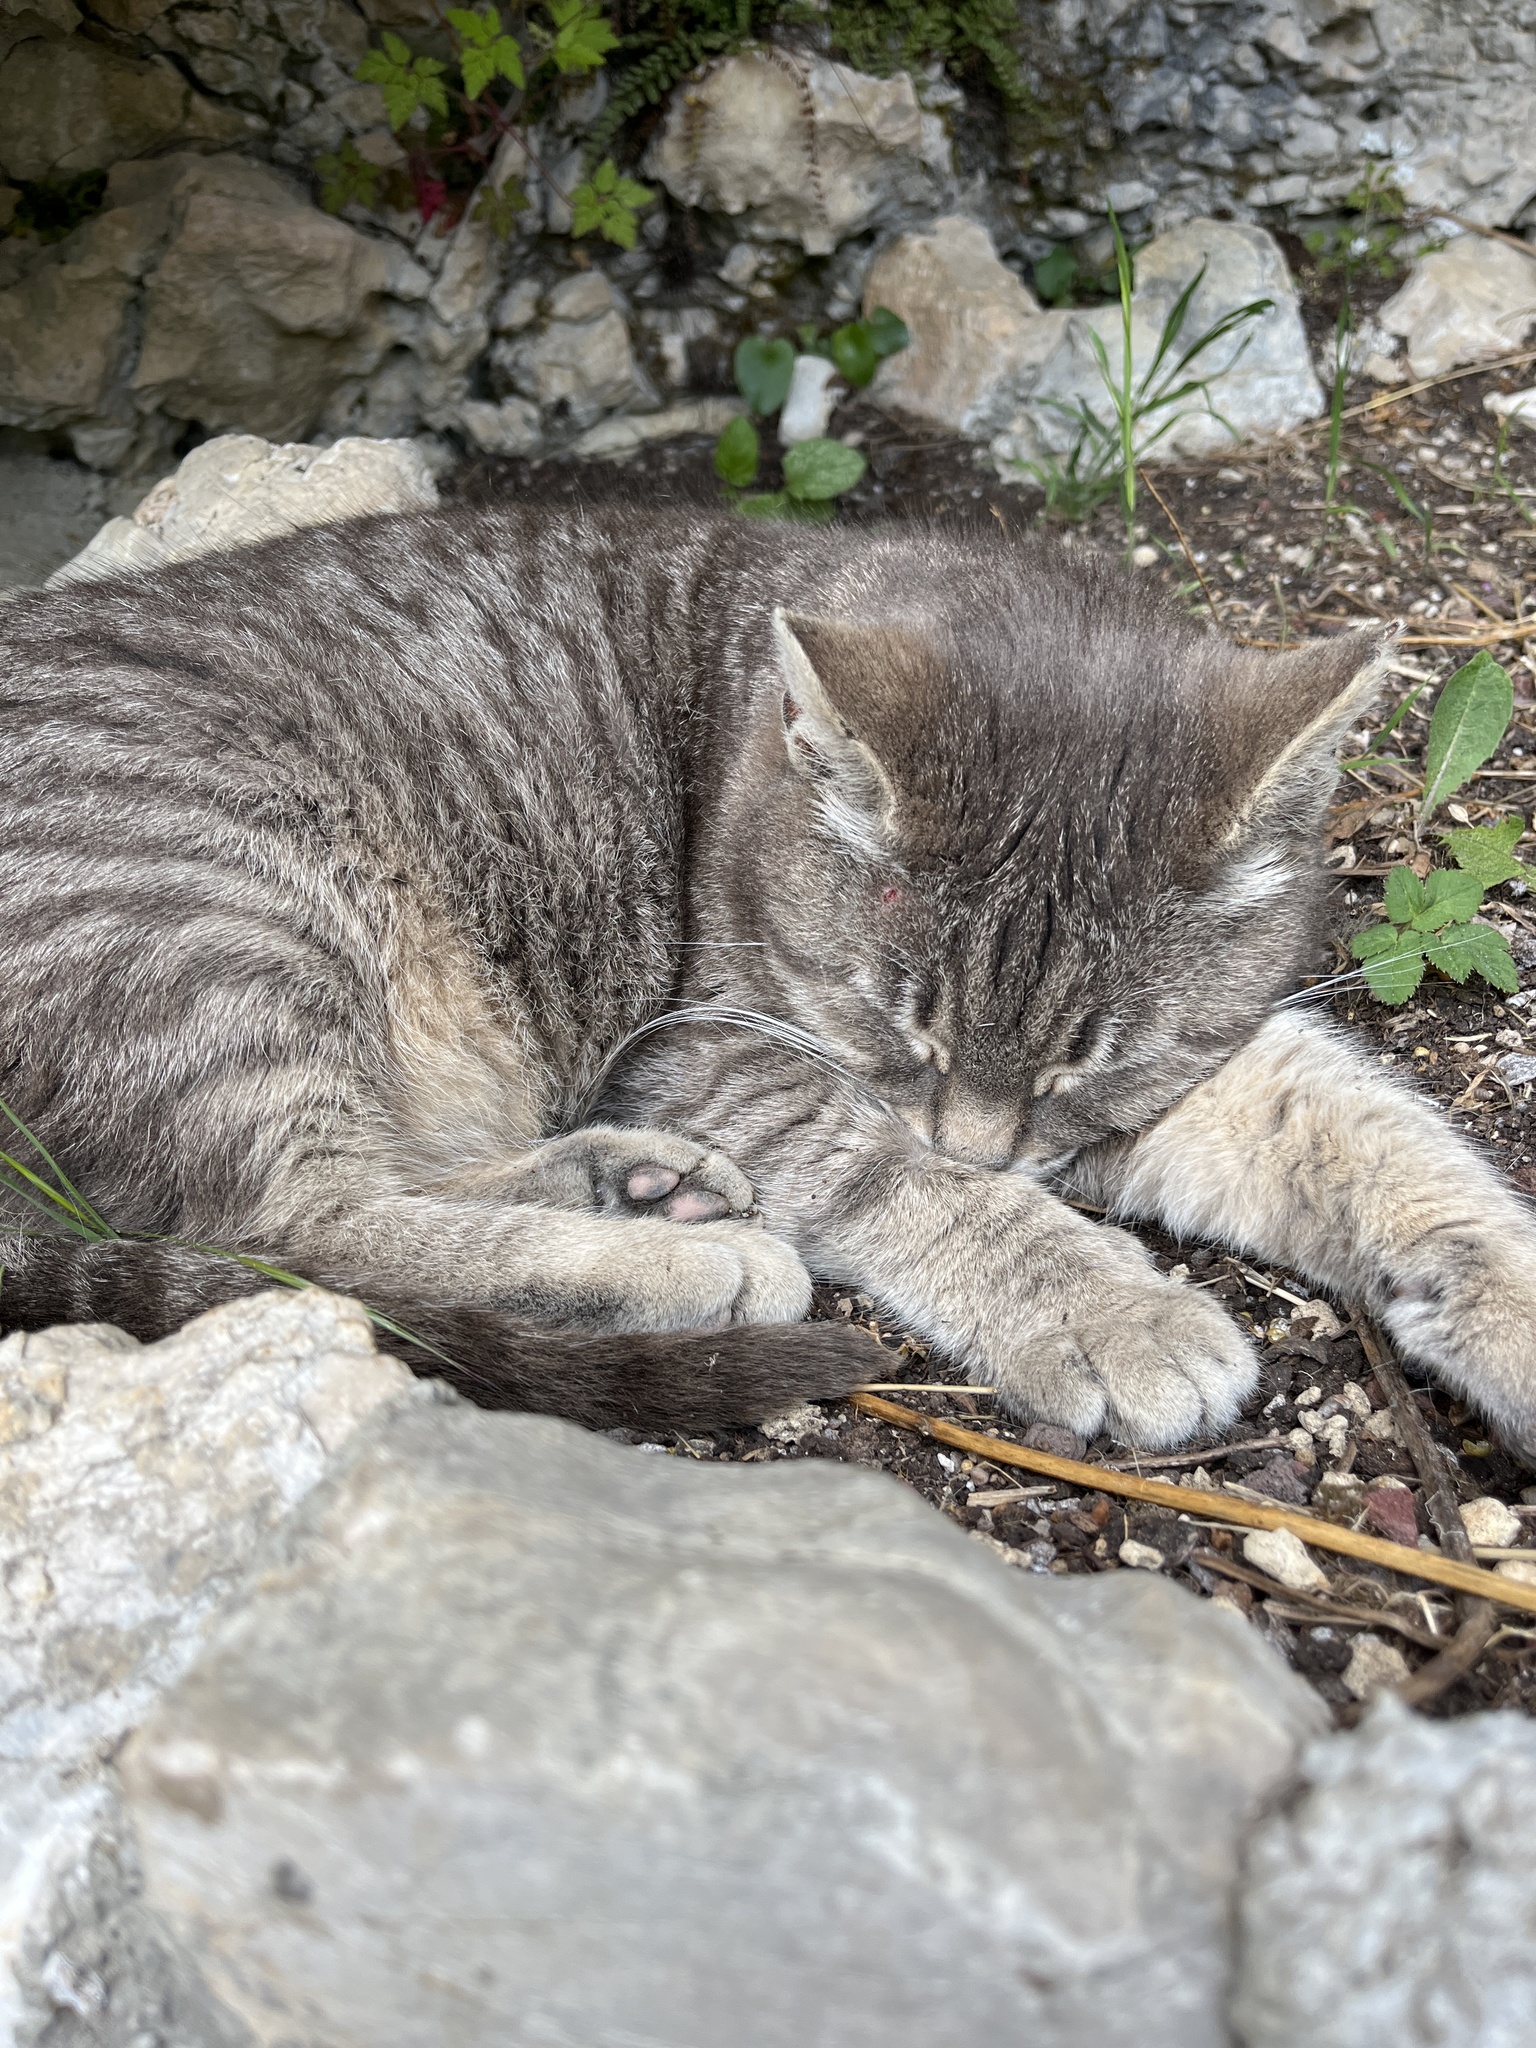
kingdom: Animalia
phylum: Chordata
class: Mammalia
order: Carnivora
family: Felidae
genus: Felis
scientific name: Felis catus
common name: Domestic cat
